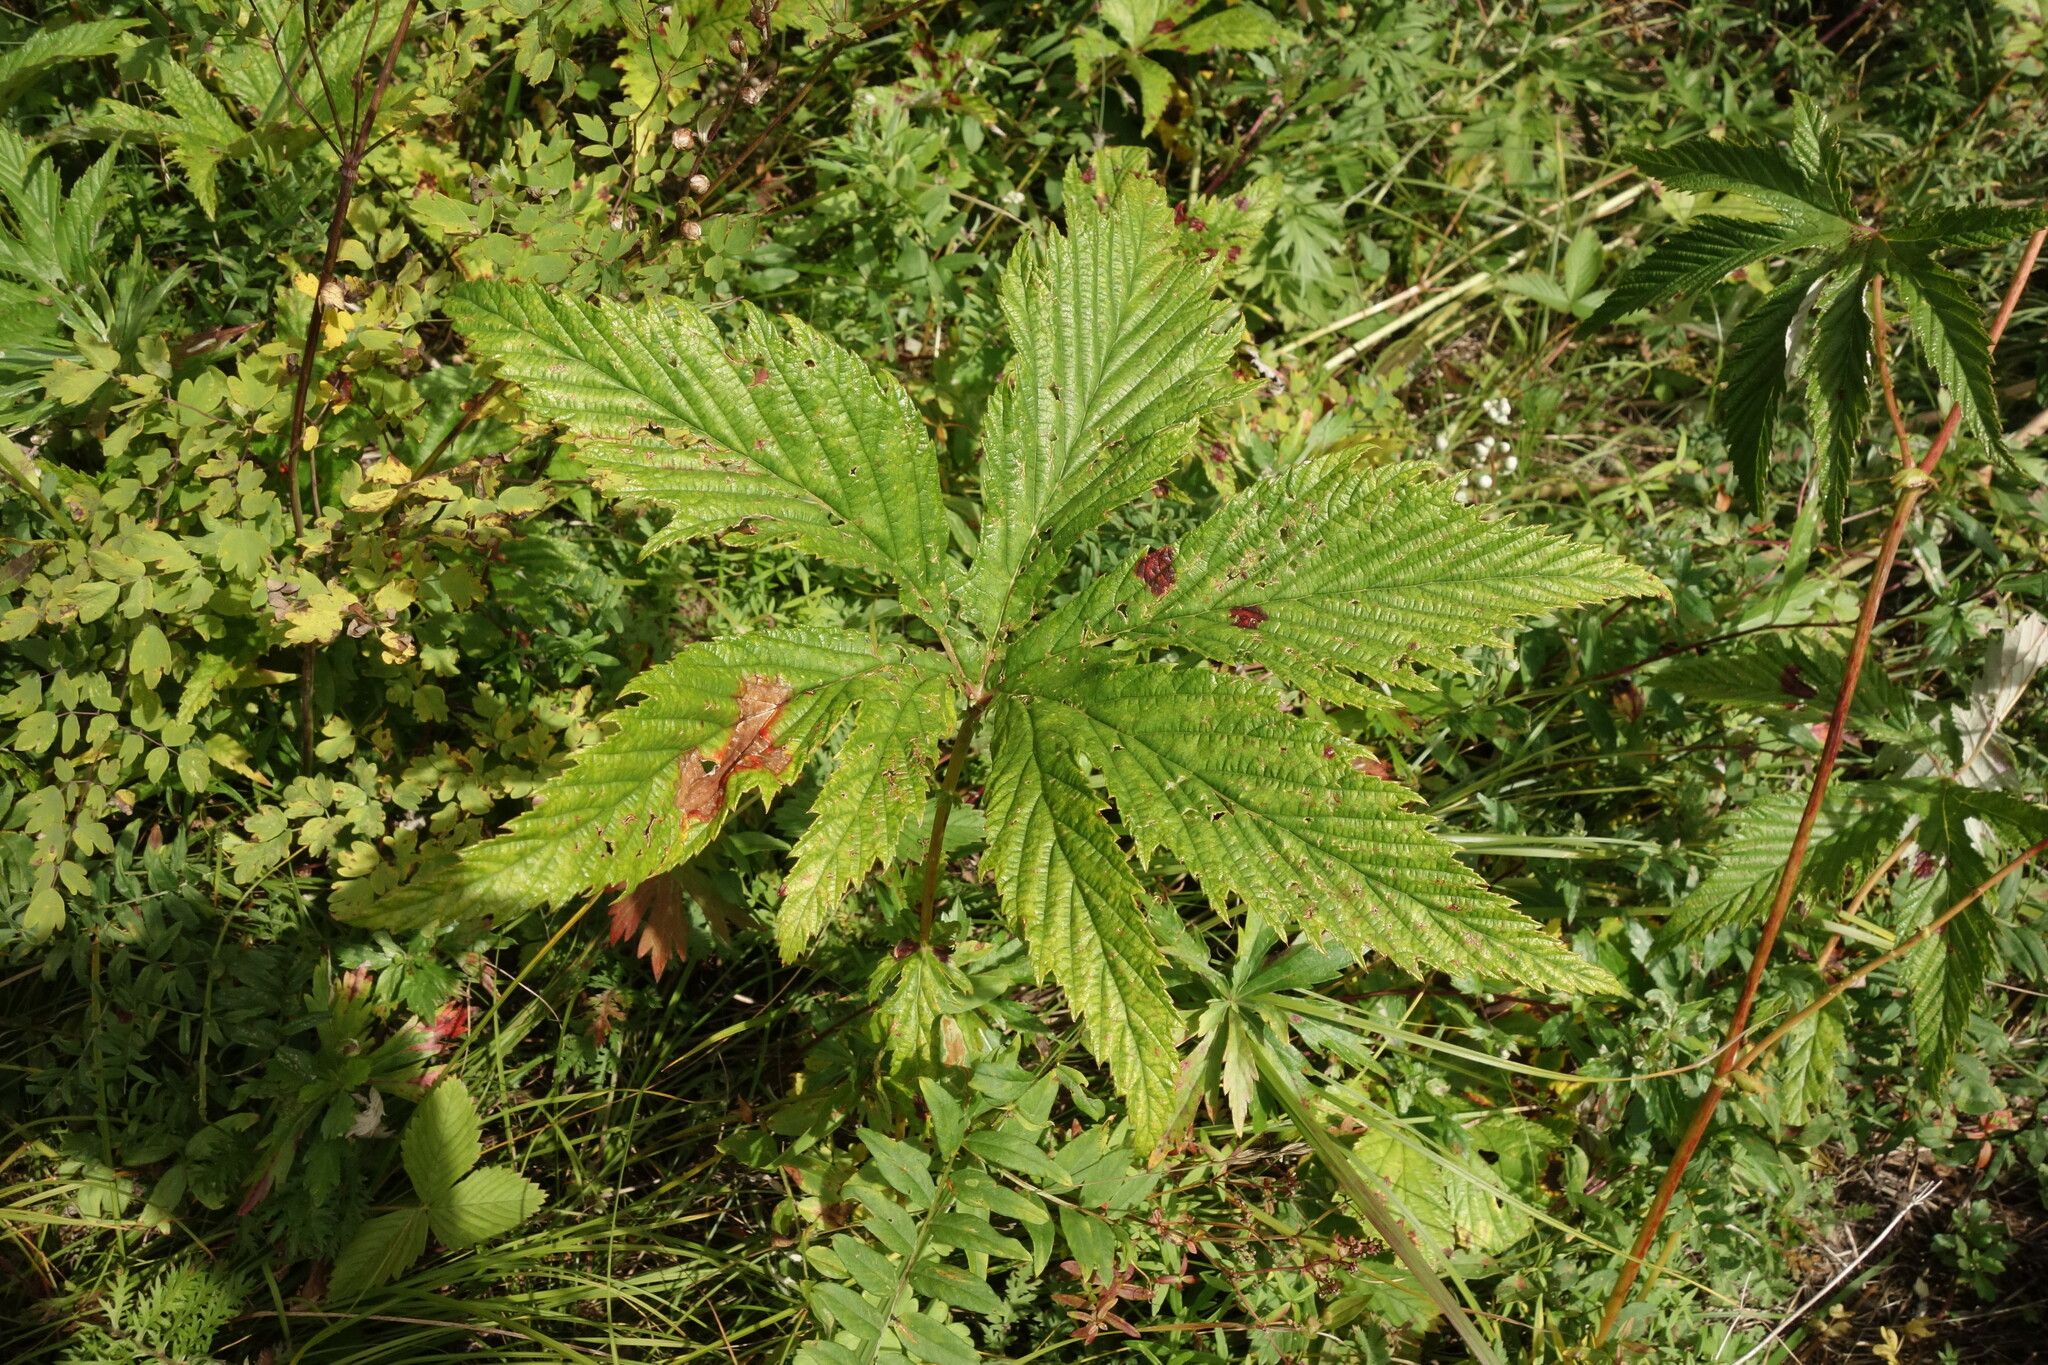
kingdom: Plantae
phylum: Tracheophyta
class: Magnoliopsida
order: Rosales
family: Rosaceae
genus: Filipendula
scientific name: Filipendula digitata
